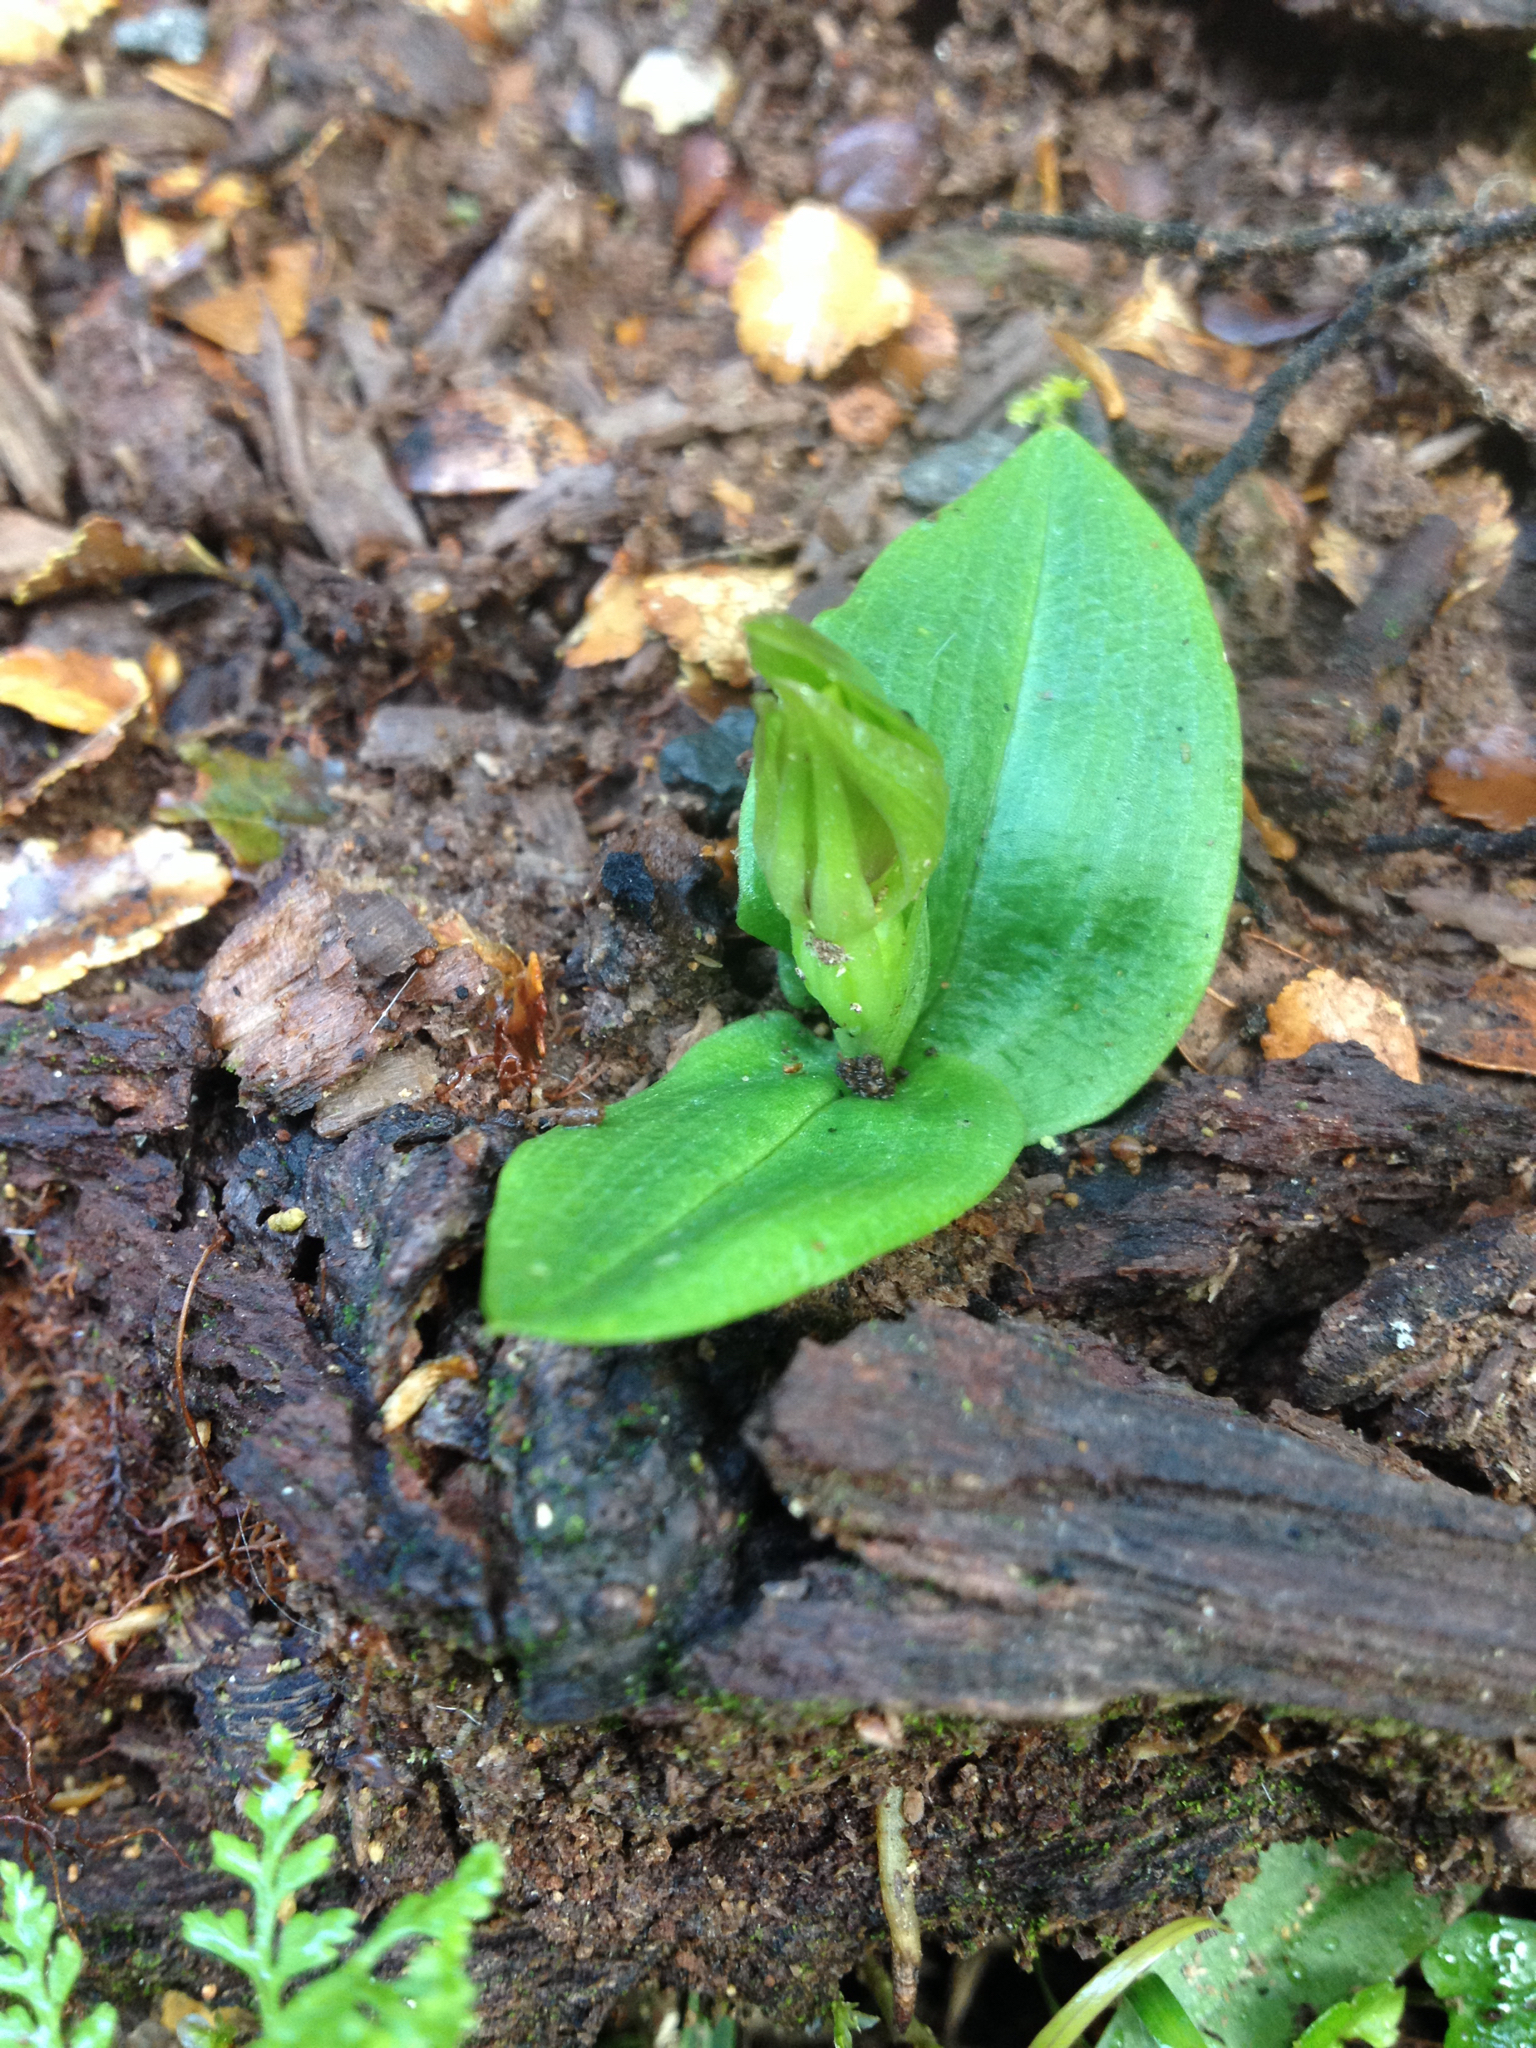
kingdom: Plantae
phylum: Tracheophyta
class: Liliopsida
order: Asparagales
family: Orchidaceae
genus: Chiloglottis
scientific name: Chiloglottis cornuta
